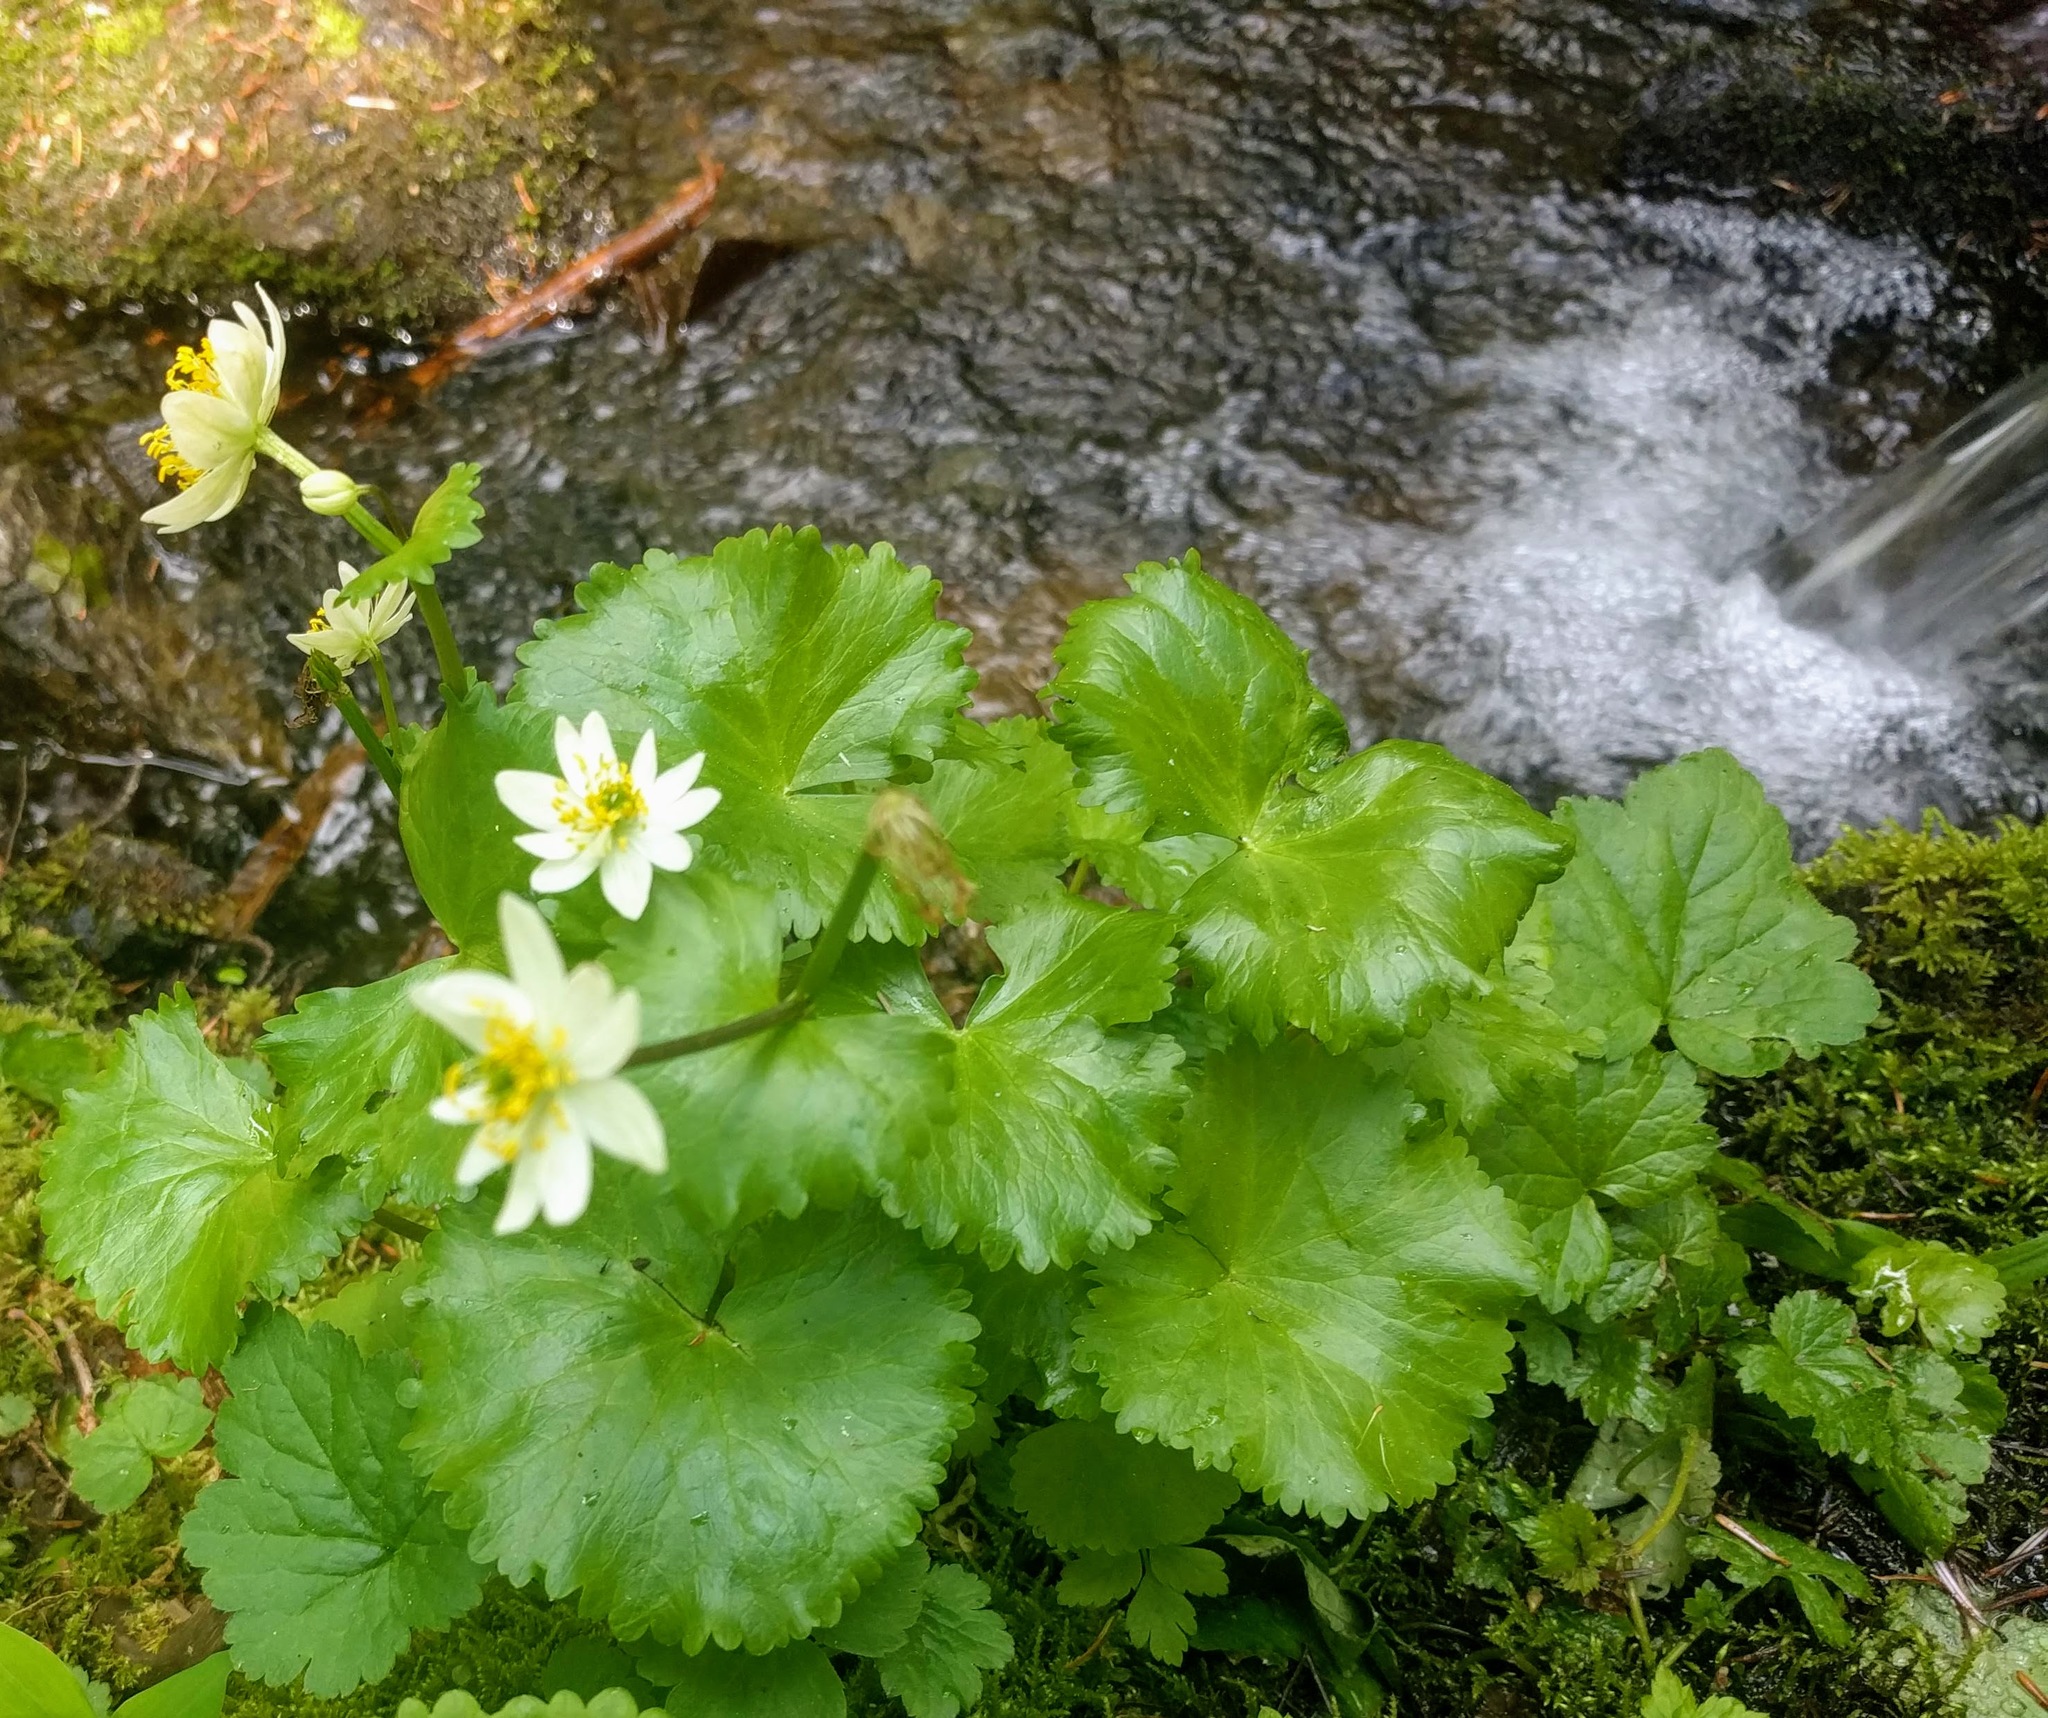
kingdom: Plantae
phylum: Tracheophyta
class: Magnoliopsida
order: Ranunculales
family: Ranunculaceae
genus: Caltha
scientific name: Caltha leptosepala
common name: Elkslip
